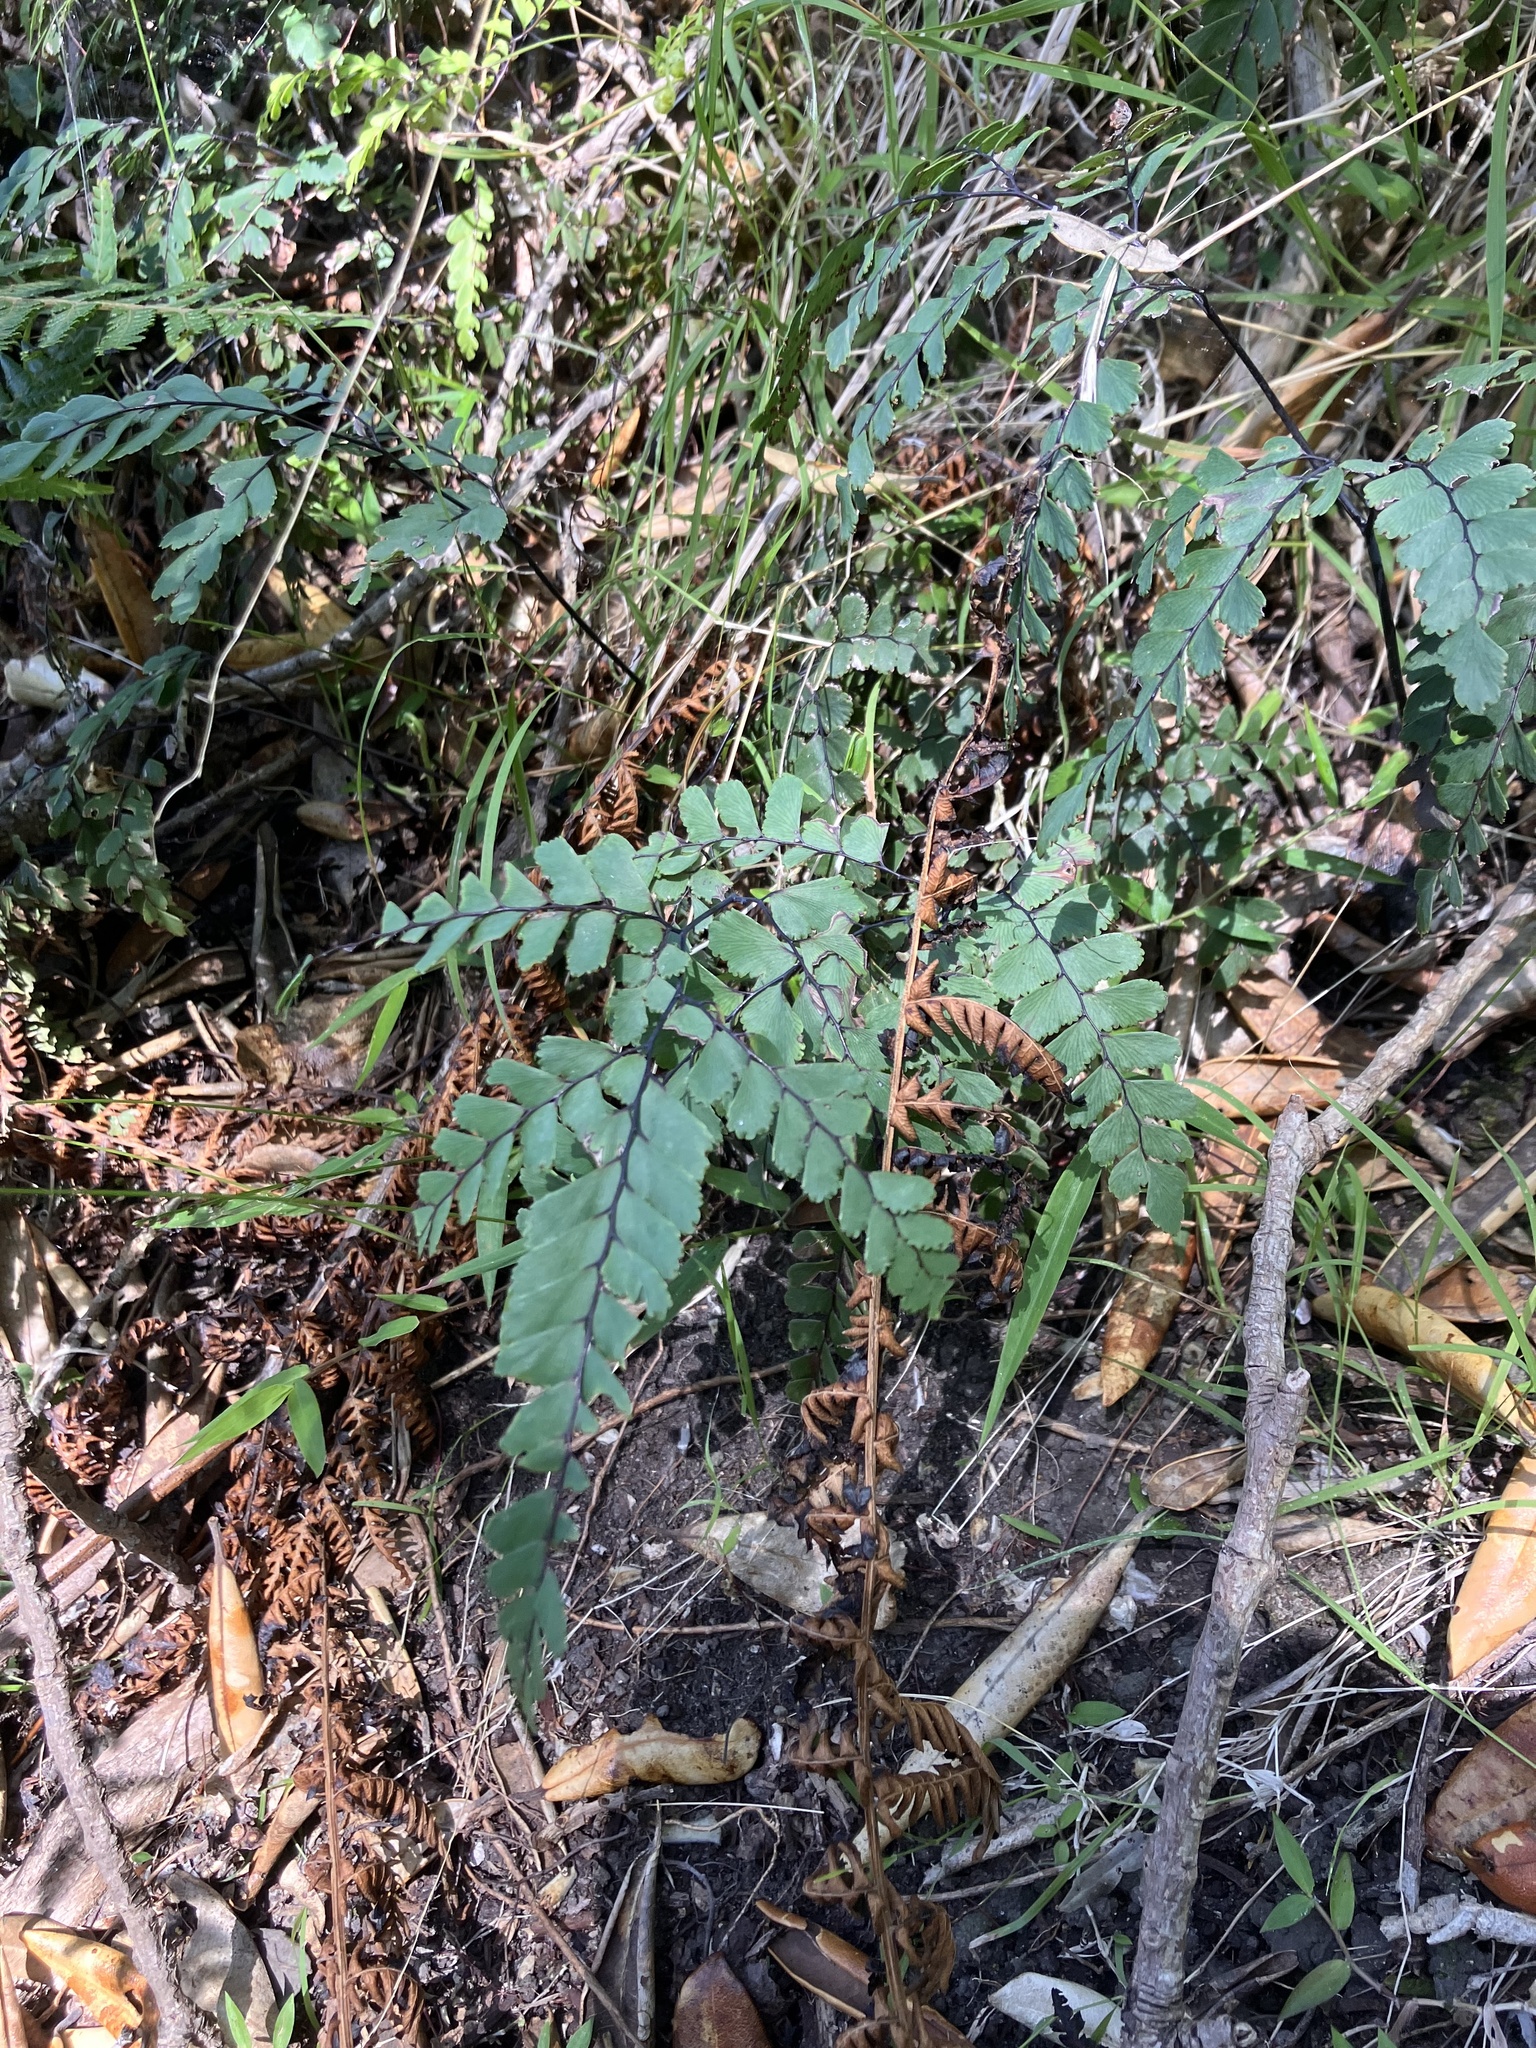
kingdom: Plantae
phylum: Tracheophyta
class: Polypodiopsida
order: Polypodiales
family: Pteridaceae
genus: Adiantum
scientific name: Adiantum cunninghamii
